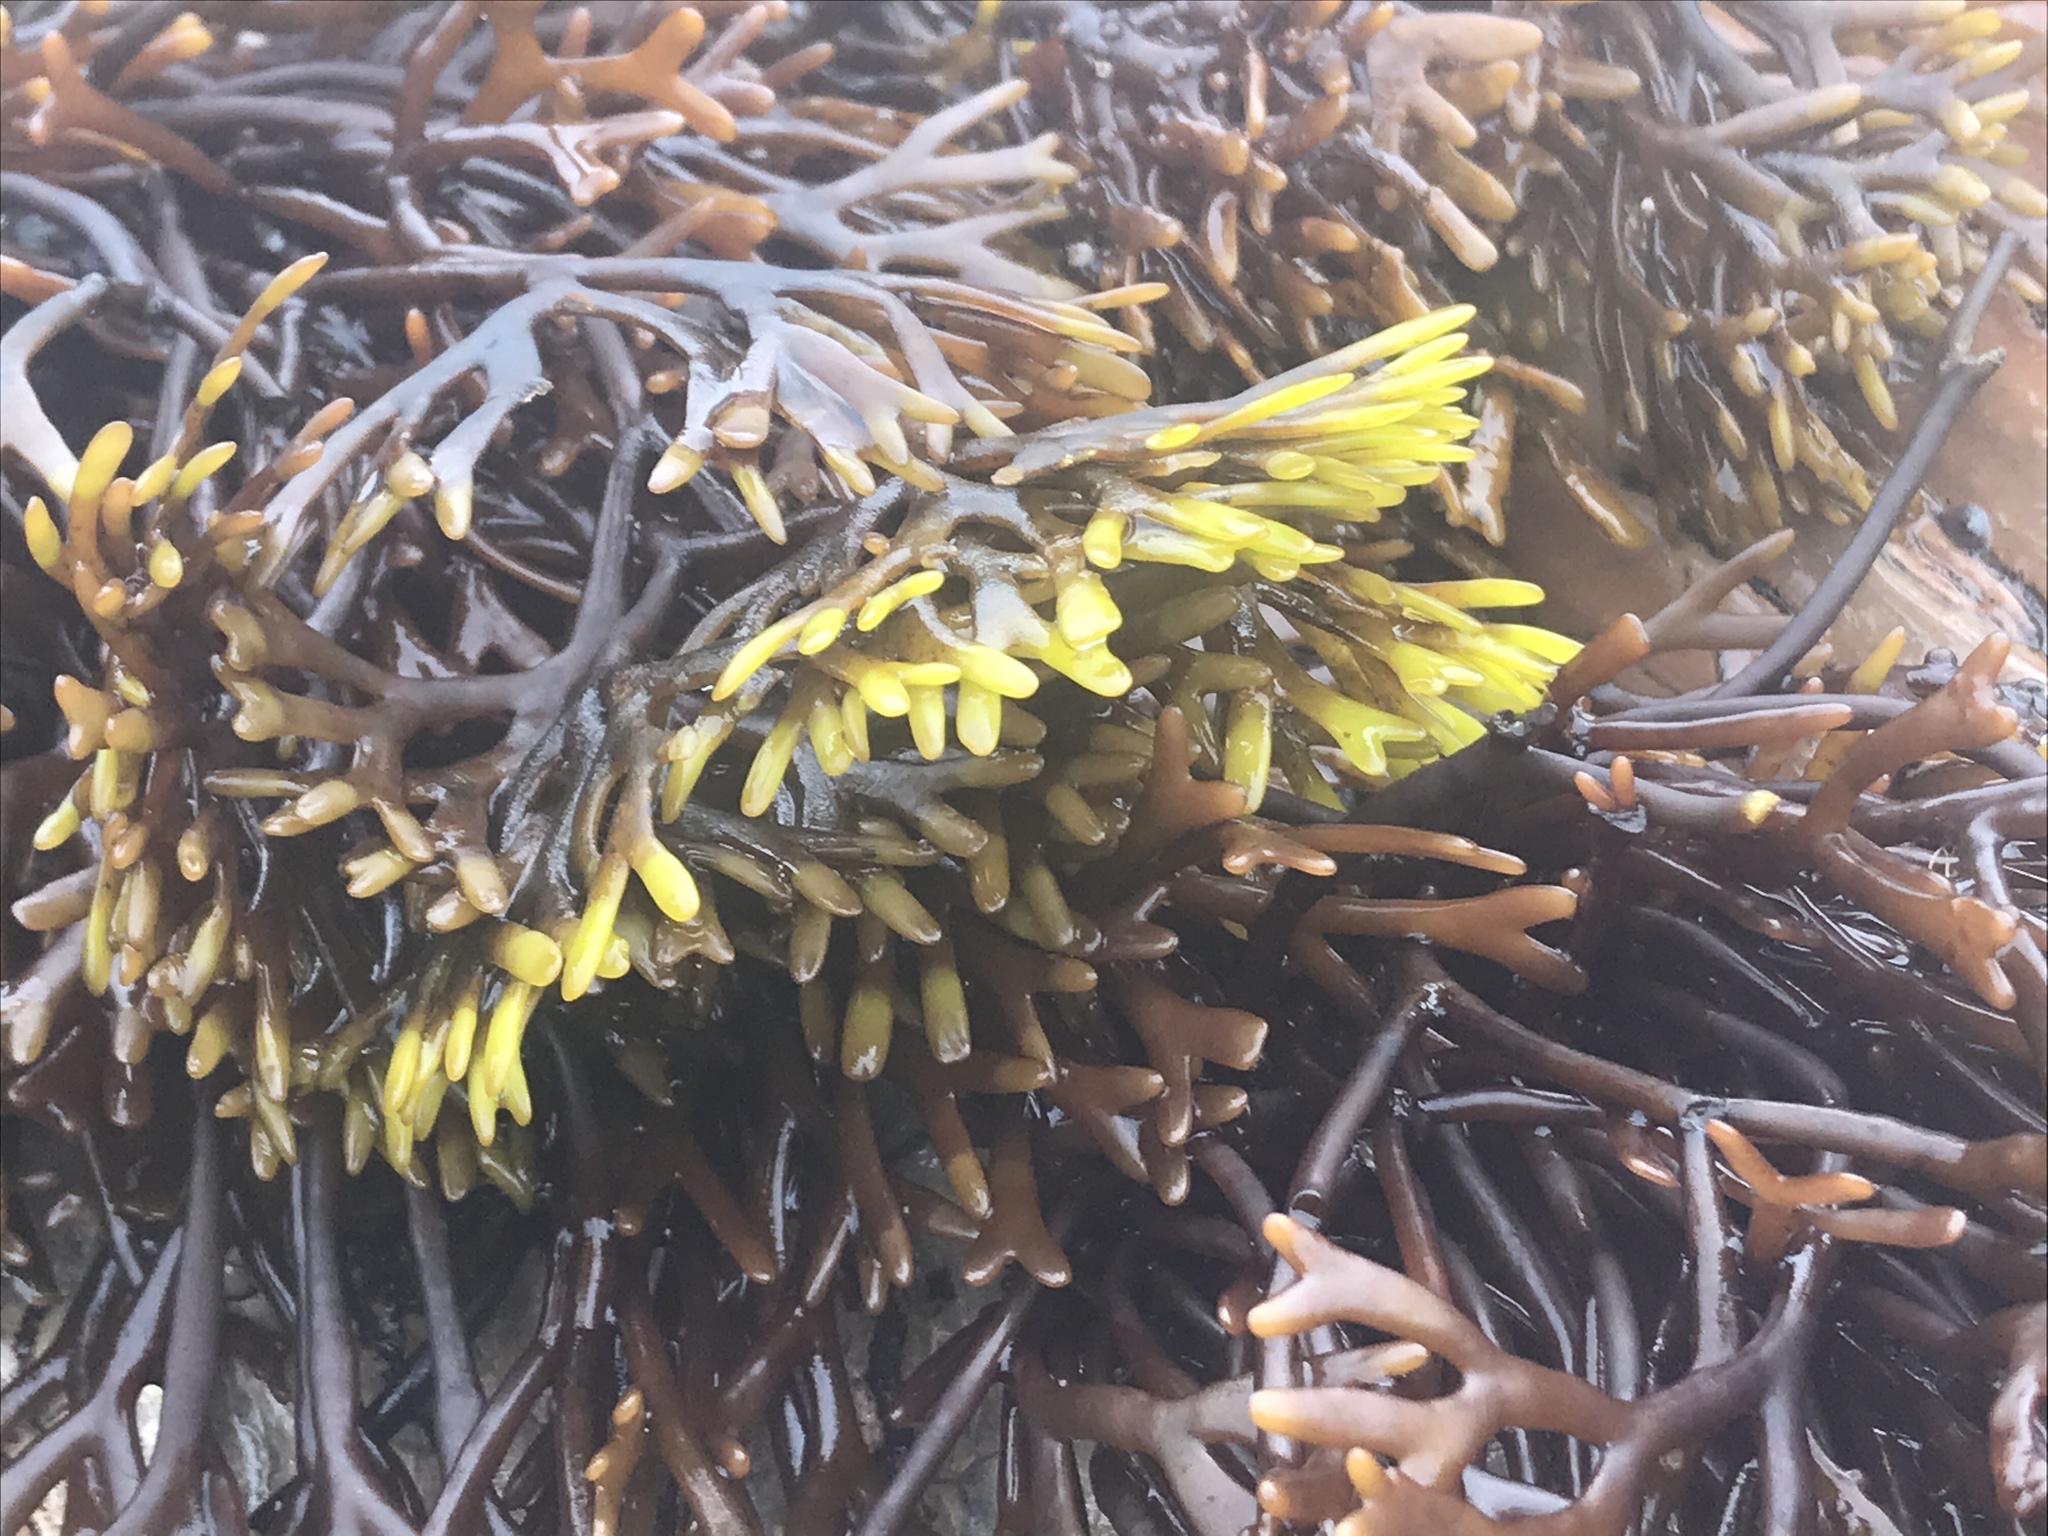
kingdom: Plantae
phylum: Rhodophyta
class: Florideophyceae
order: Gigartinales
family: Phyllophoraceae
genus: Ahnfeltiopsis
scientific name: Ahnfeltiopsis linearis
